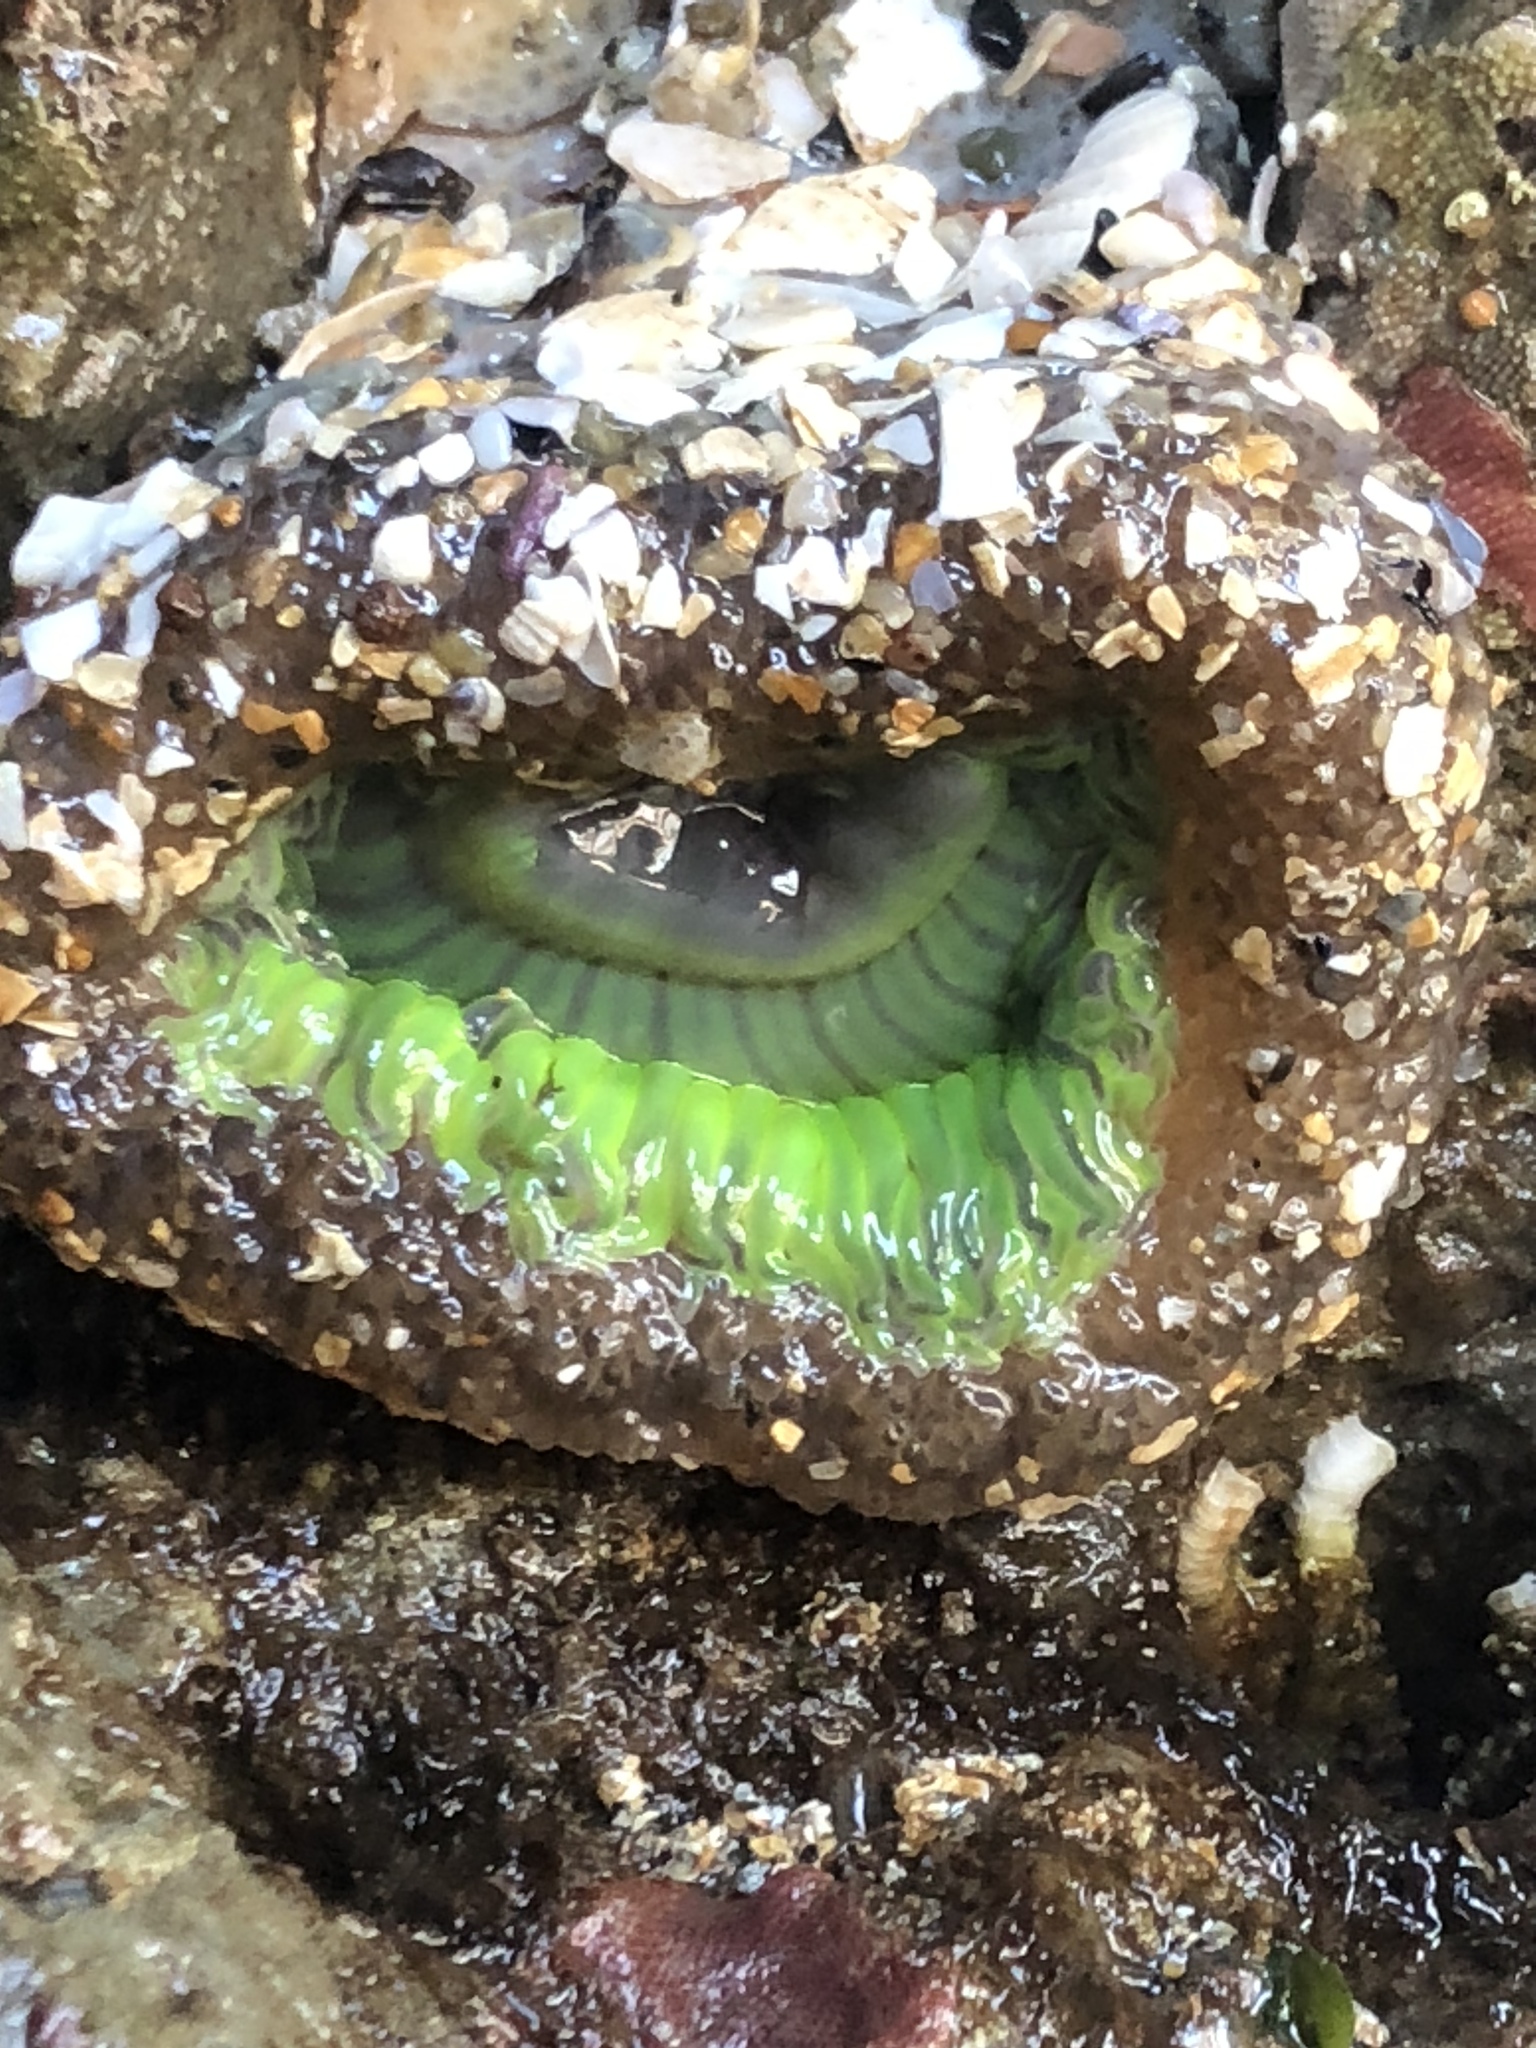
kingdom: Animalia
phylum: Cnidaria
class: Anthozoa
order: Actiniaria
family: Actiniidae
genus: Anthopleura
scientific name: Anthopleura sola
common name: Sun anemone
